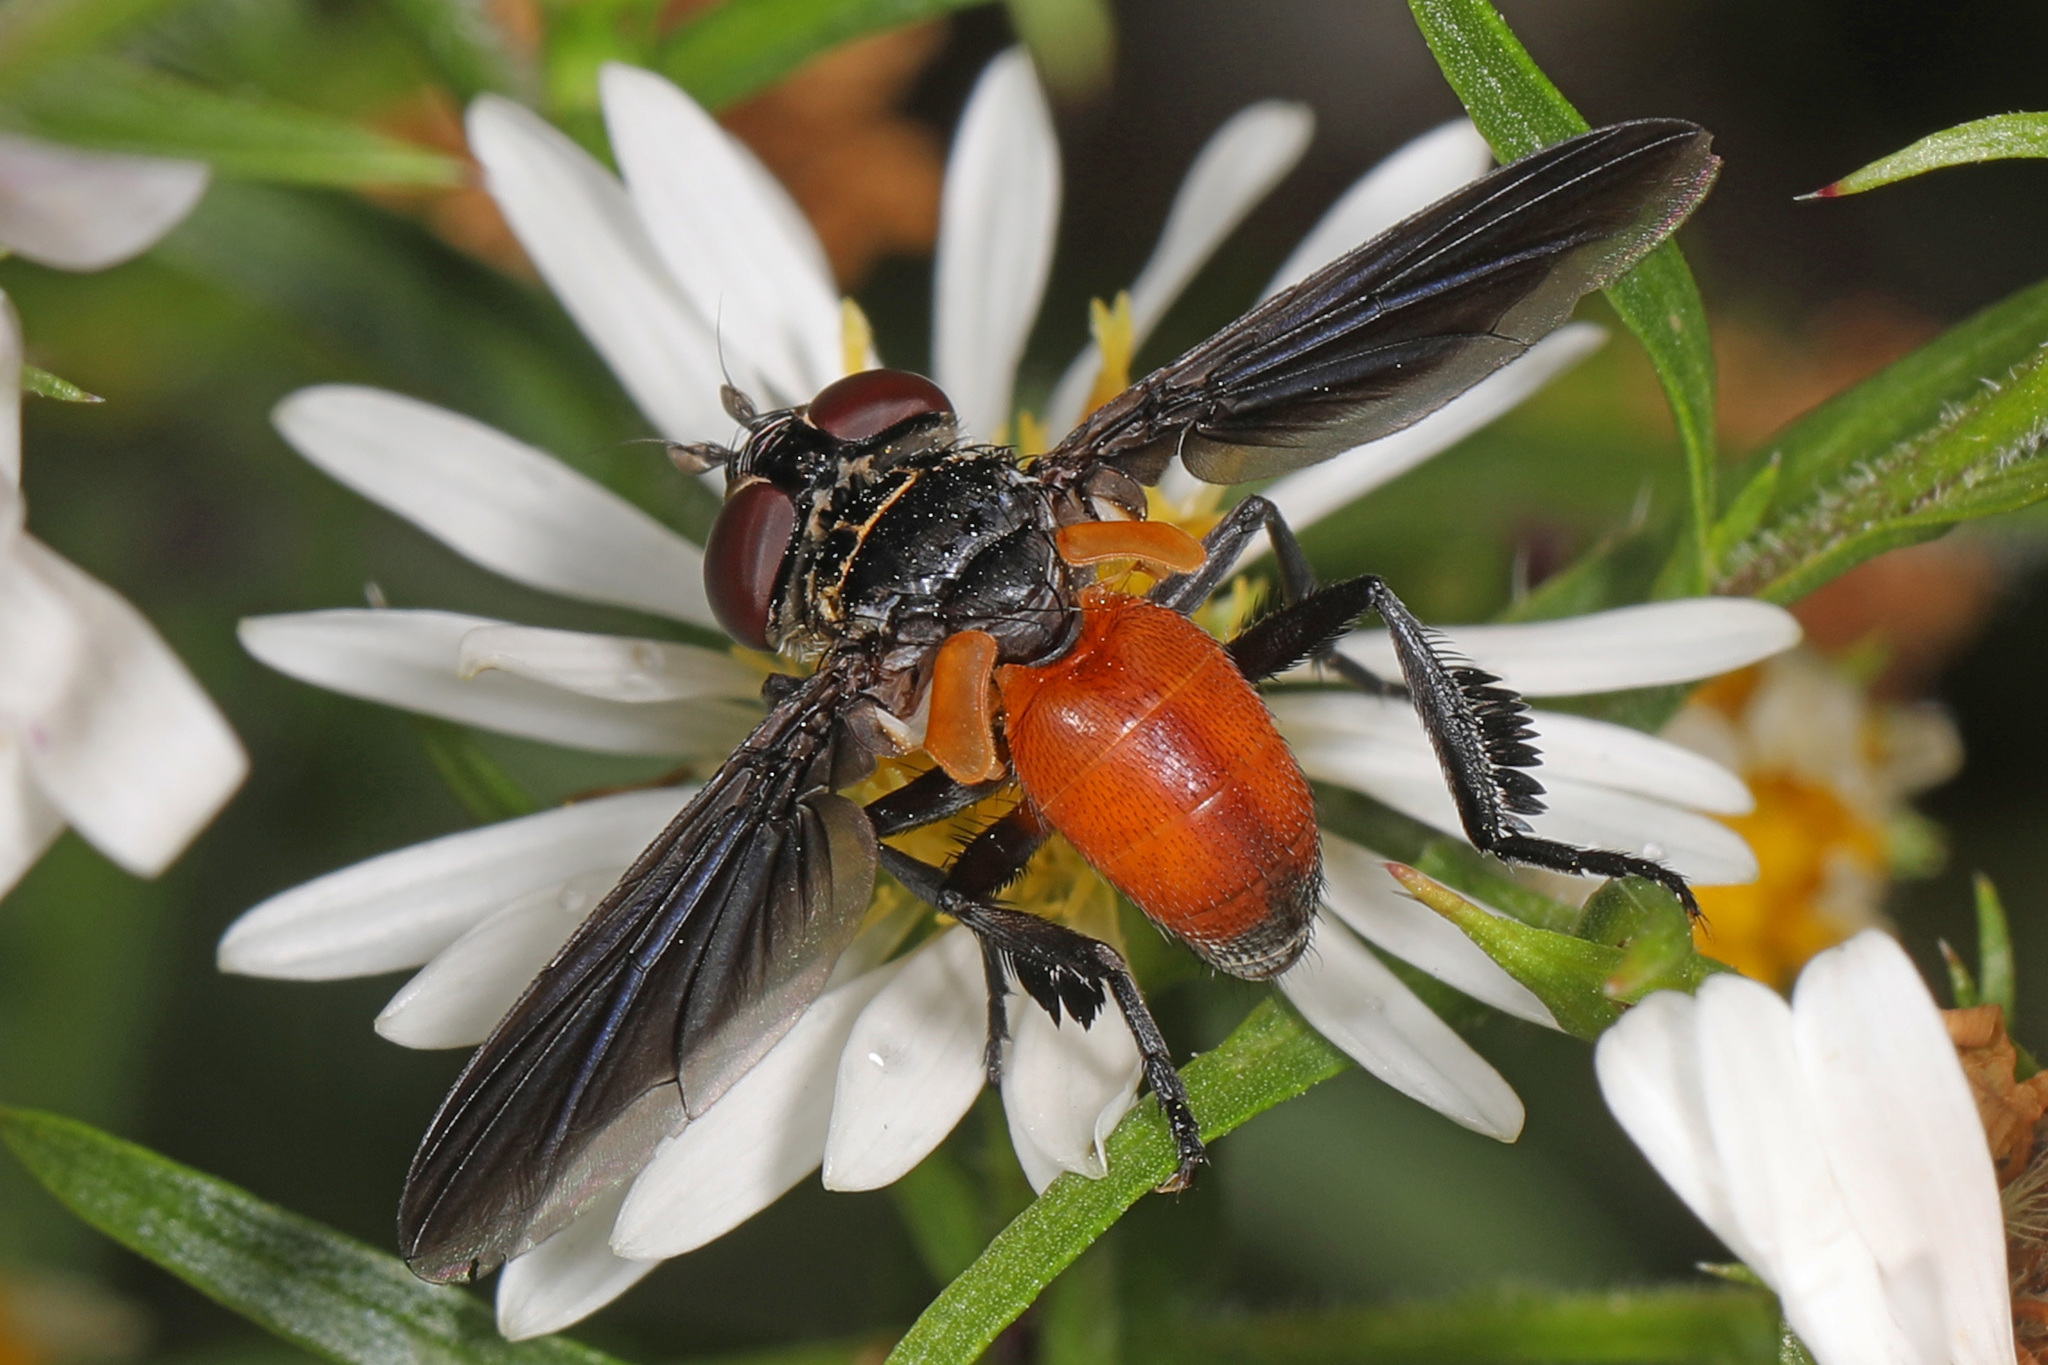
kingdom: Animalia
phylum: Arthropoda
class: Insecta
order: Diptera
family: Tachinidae
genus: Trichopoda
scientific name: Trichopoda pennipes
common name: Tachinid fly
